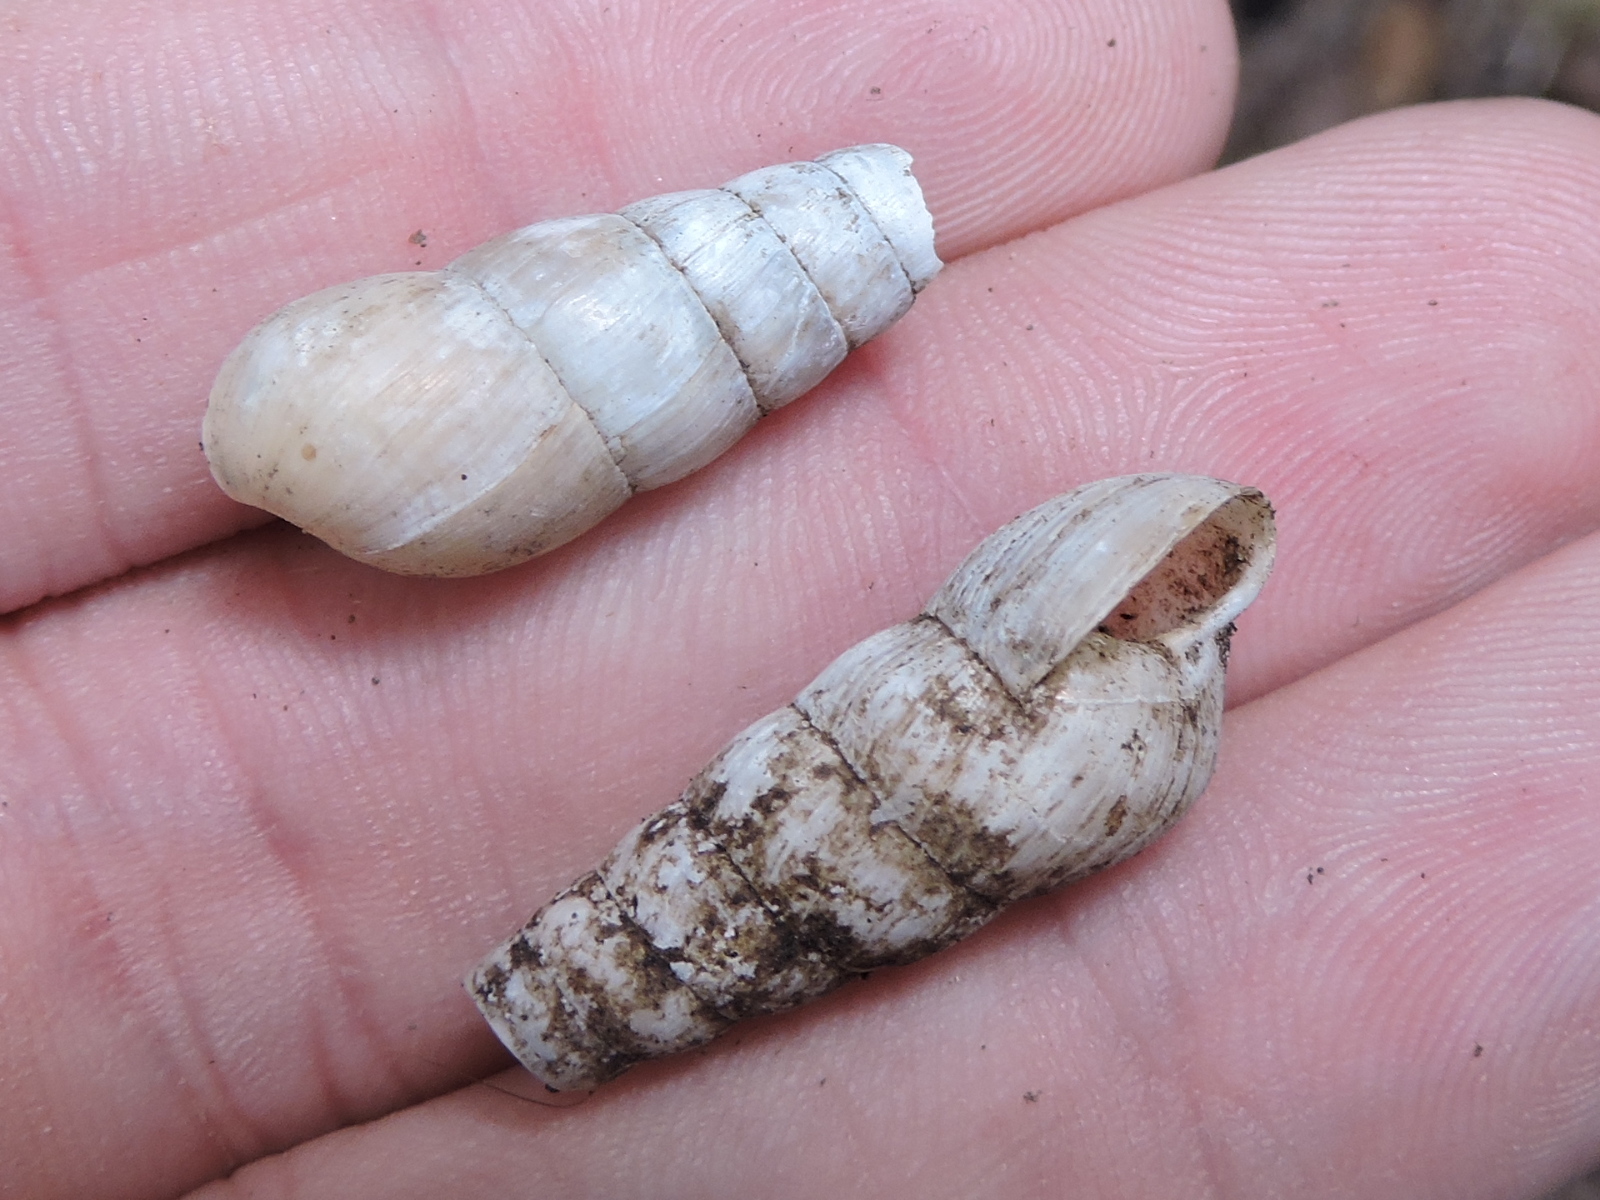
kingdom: Animalia
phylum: Mollusca
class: Gastropoda
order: Stylommatophora
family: Achatinidae
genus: Rumina
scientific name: Rumina decollata
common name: Decollate snail
